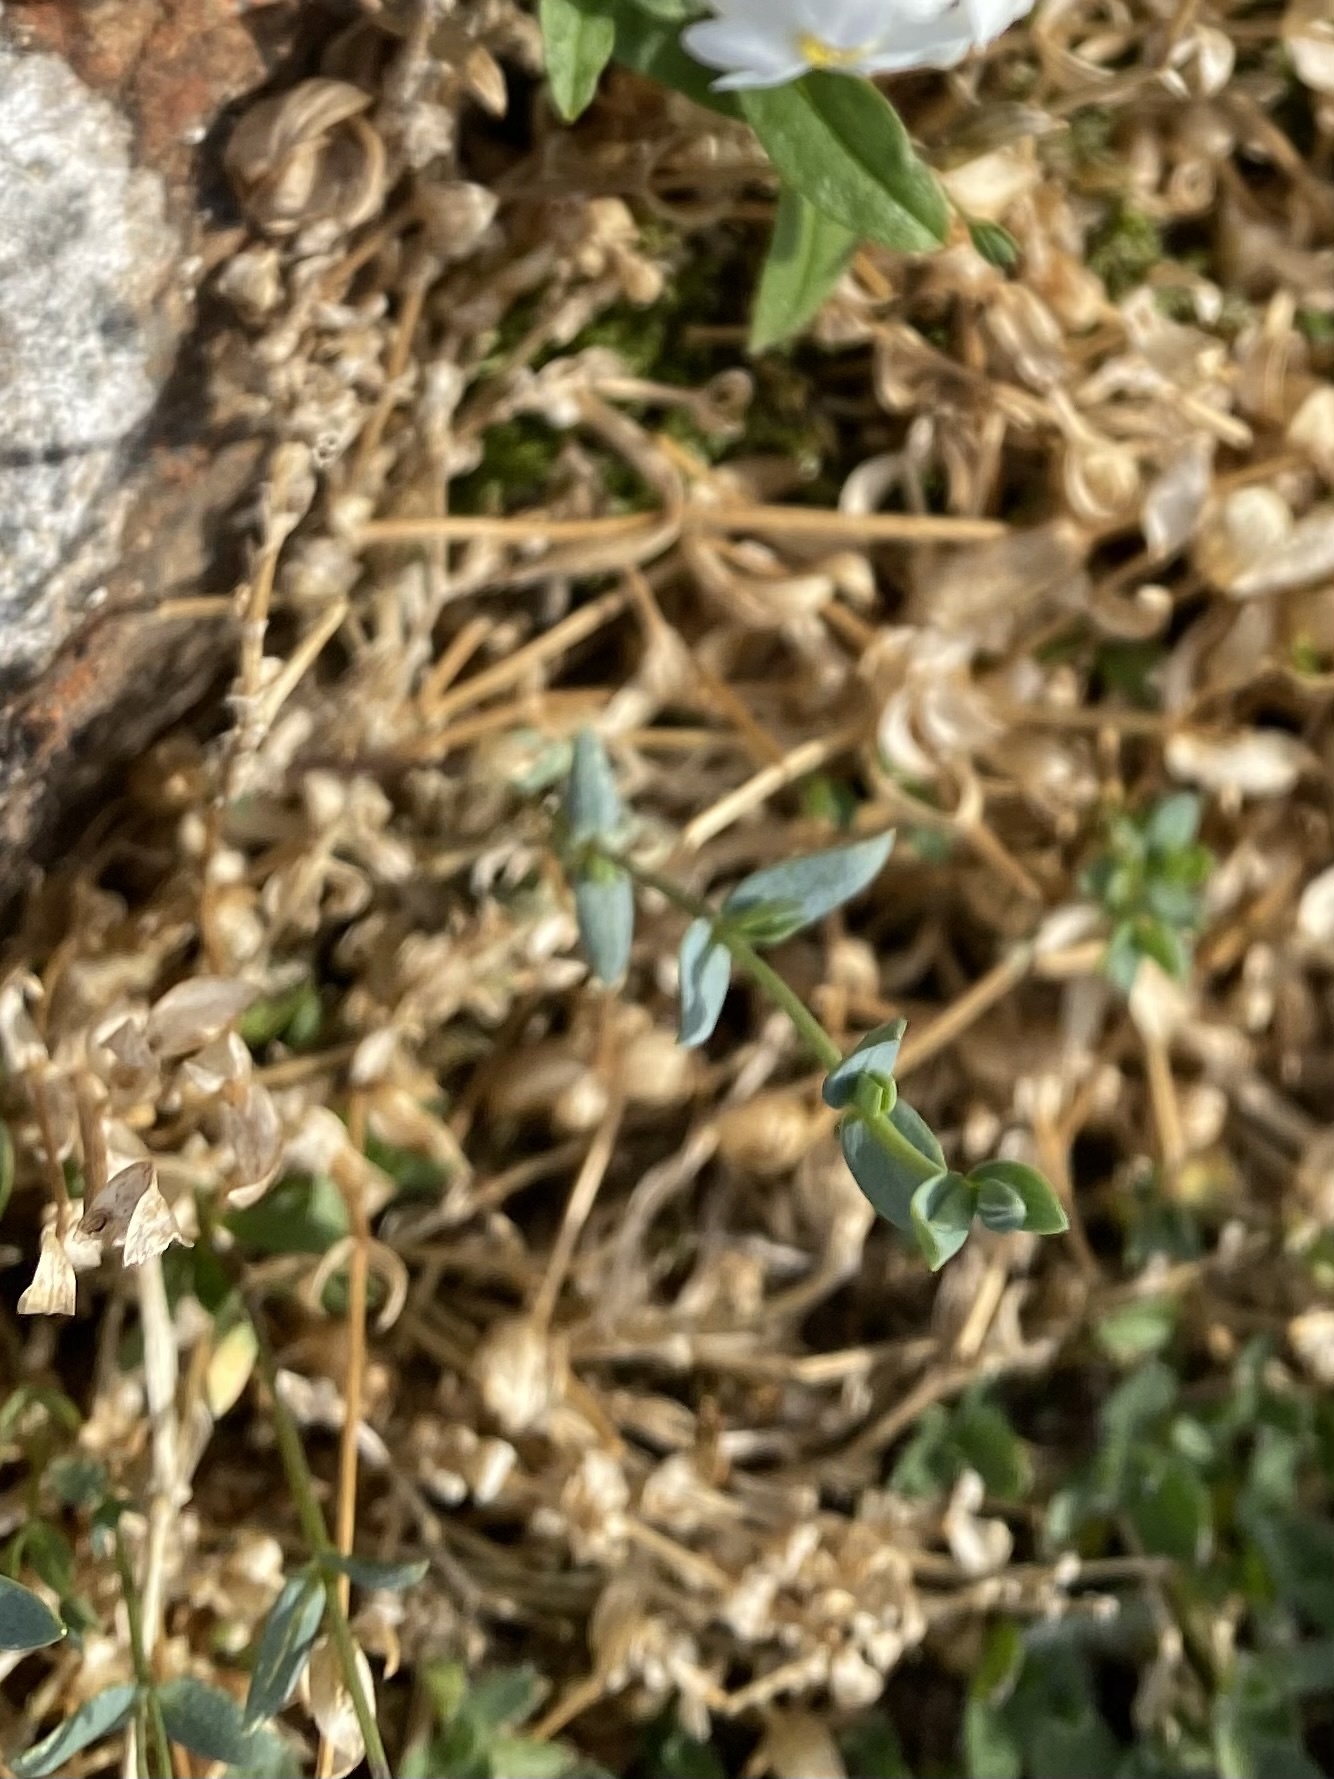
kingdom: Plantae
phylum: Tracheophyta
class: Magnoliopsida
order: Caryophyllales
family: Caryophyllaceae
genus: Stellaria
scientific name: Stellaria longipes
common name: Goldie's starwort
